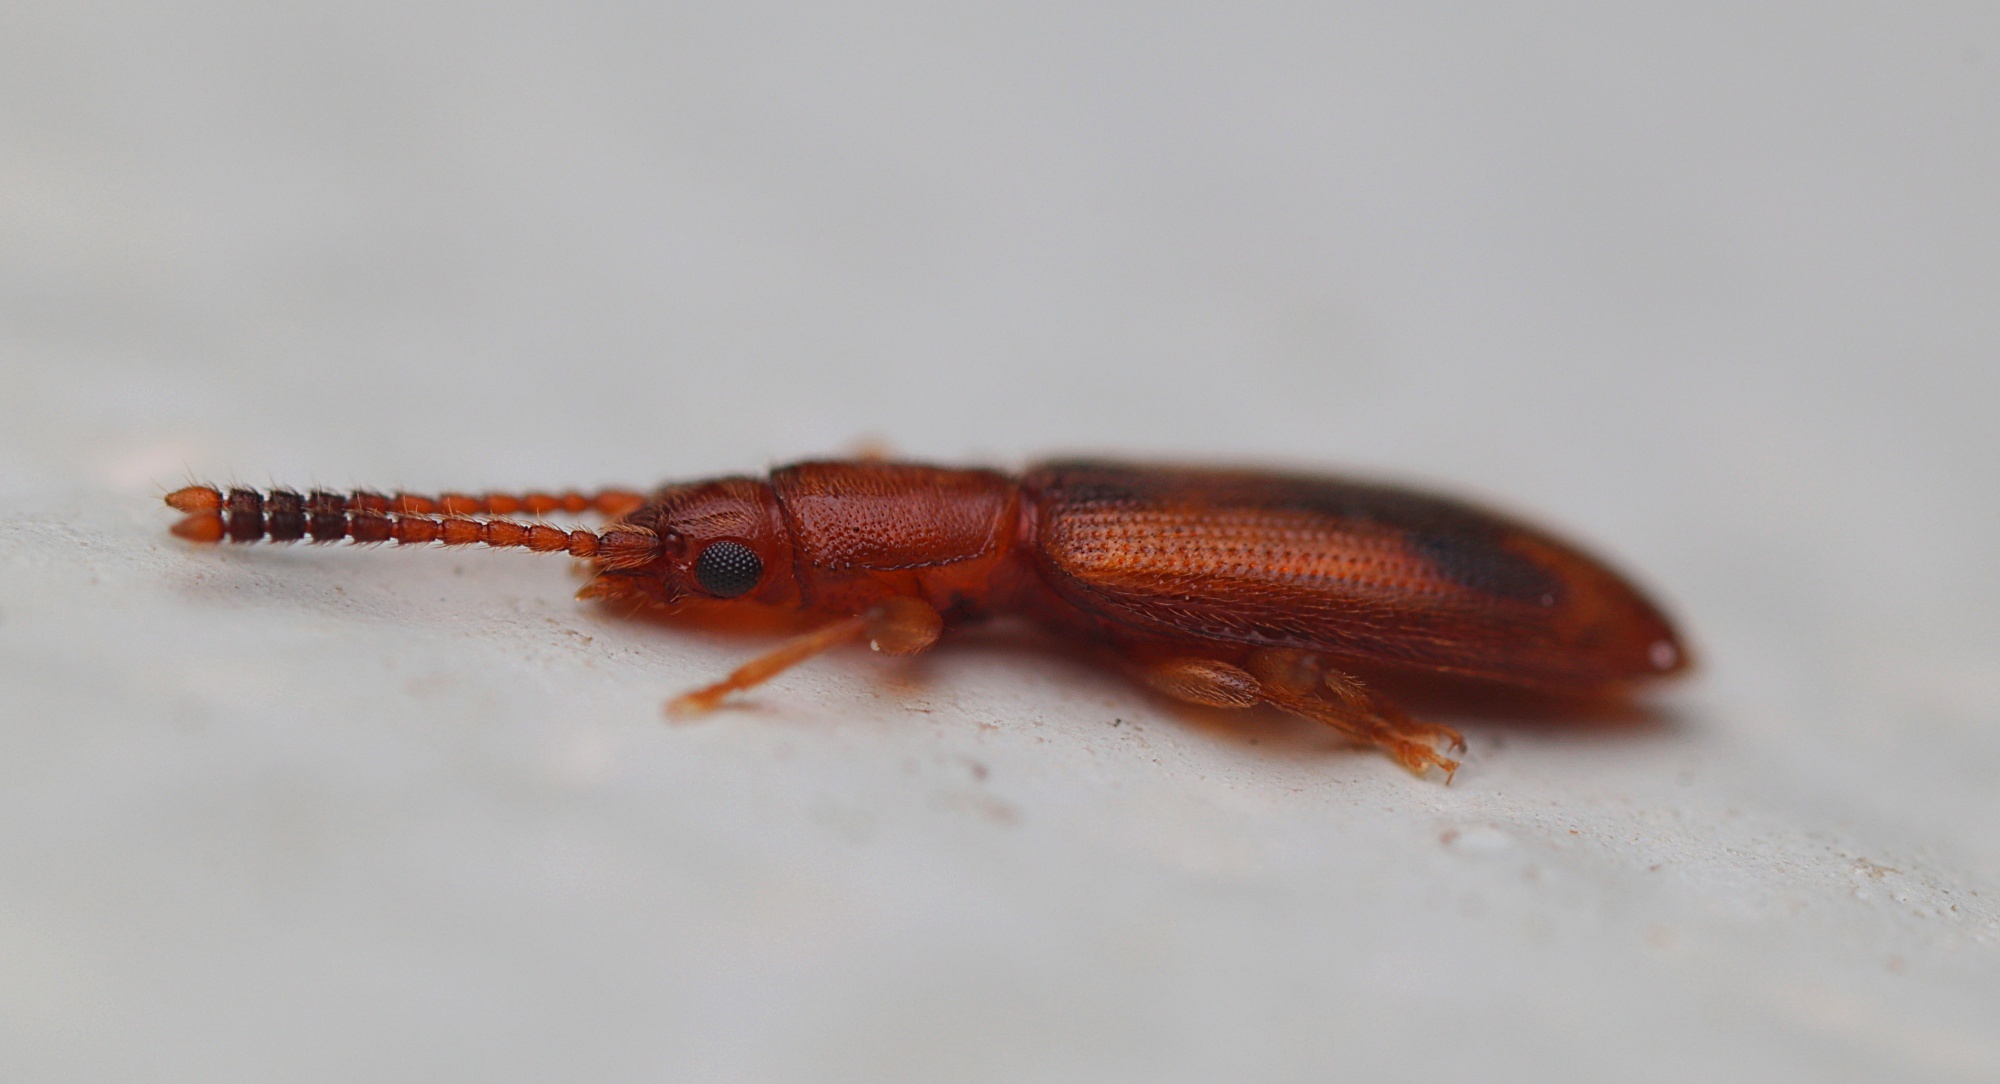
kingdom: Animalia
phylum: Arthropoda
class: Insecta
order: Coleoptera
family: Silvanidae
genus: Cryptamorpha
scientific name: Cryptamorpha desjardinsi
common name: Cryptamorpha
